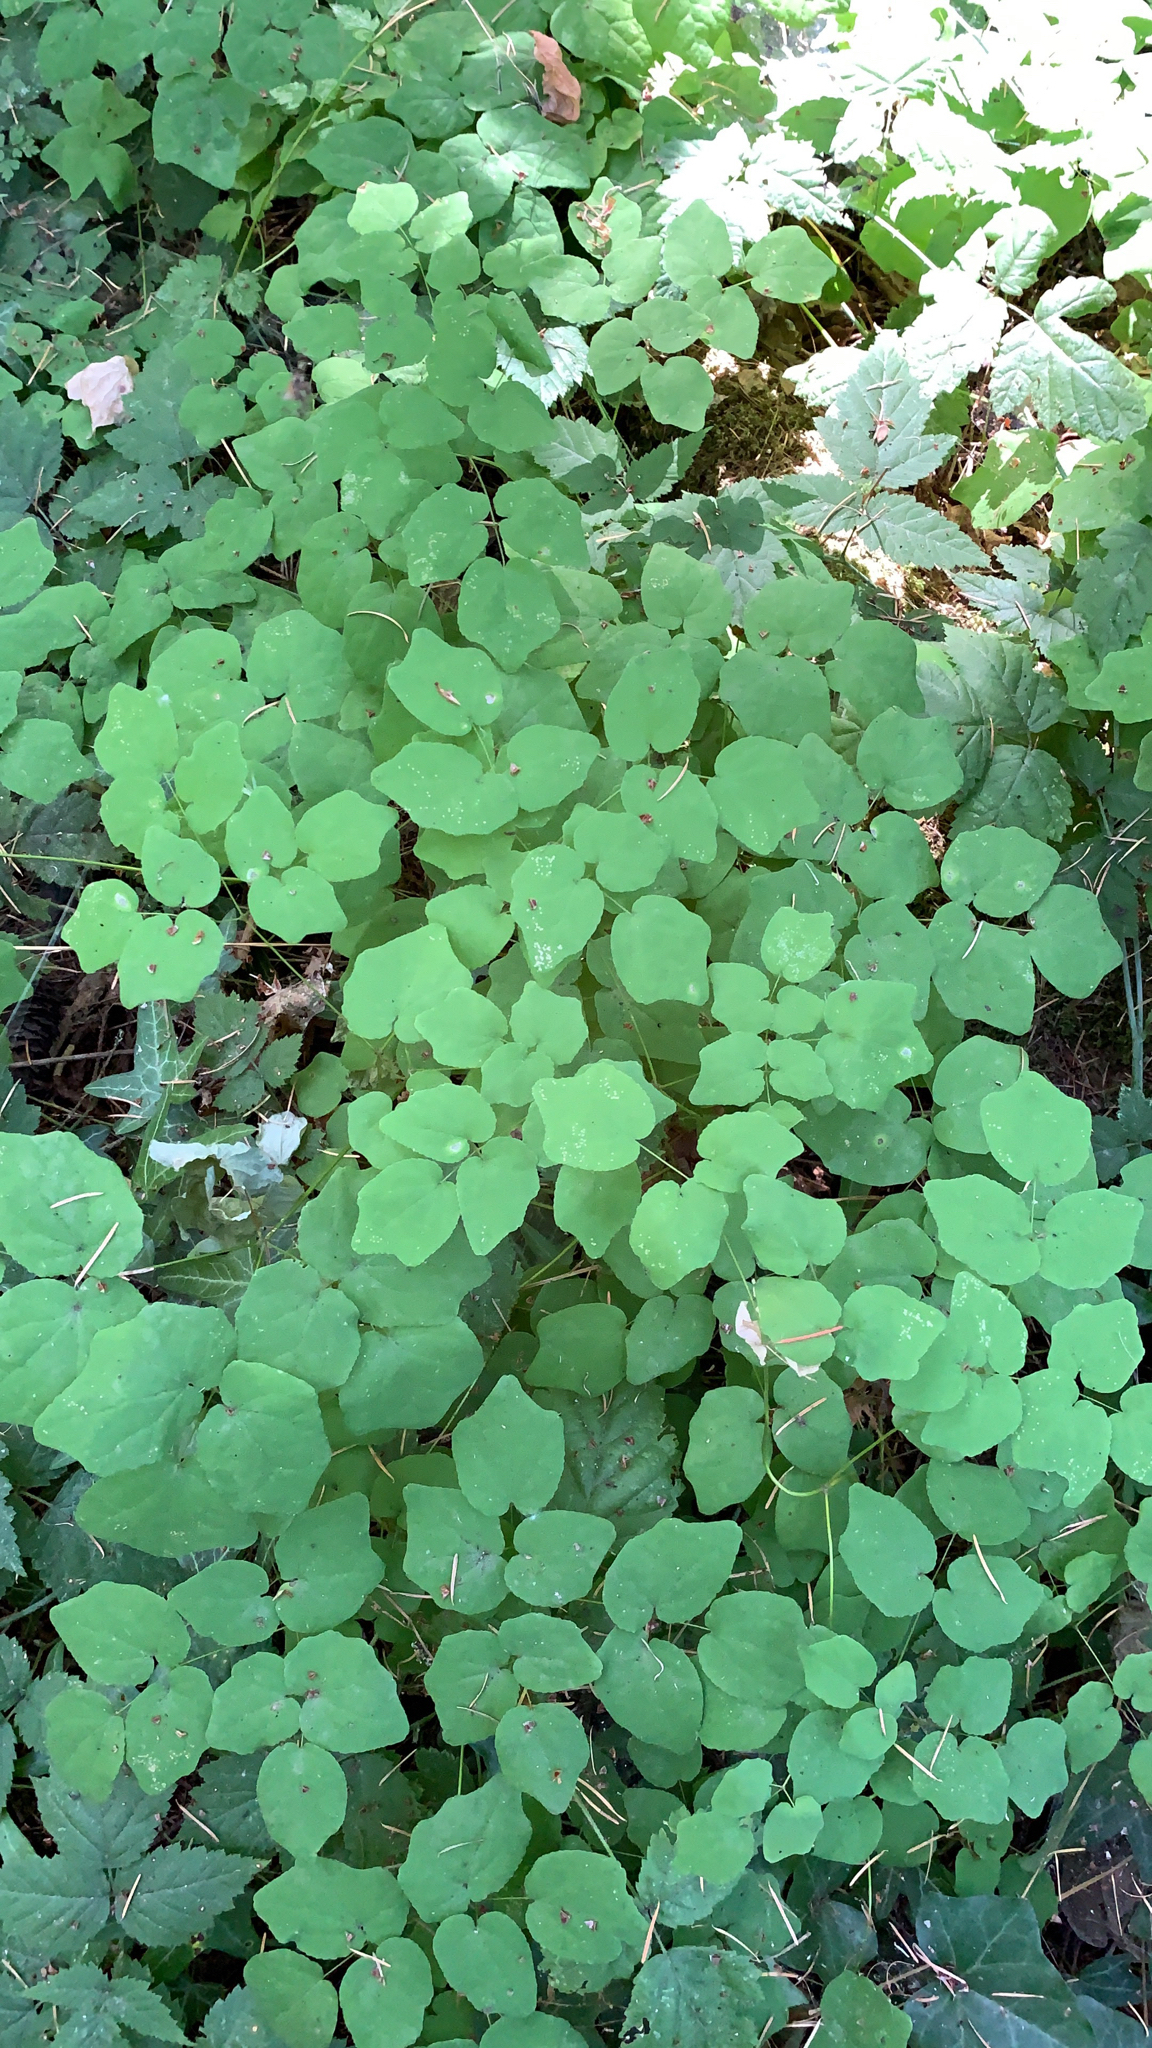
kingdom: Plantae
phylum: Tracheophyta
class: Magnoliopsida
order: Ranunculales
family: Berberidaceae
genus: Vancouveria
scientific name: Vancouveria hexandra
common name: Northern inside-out-flower
